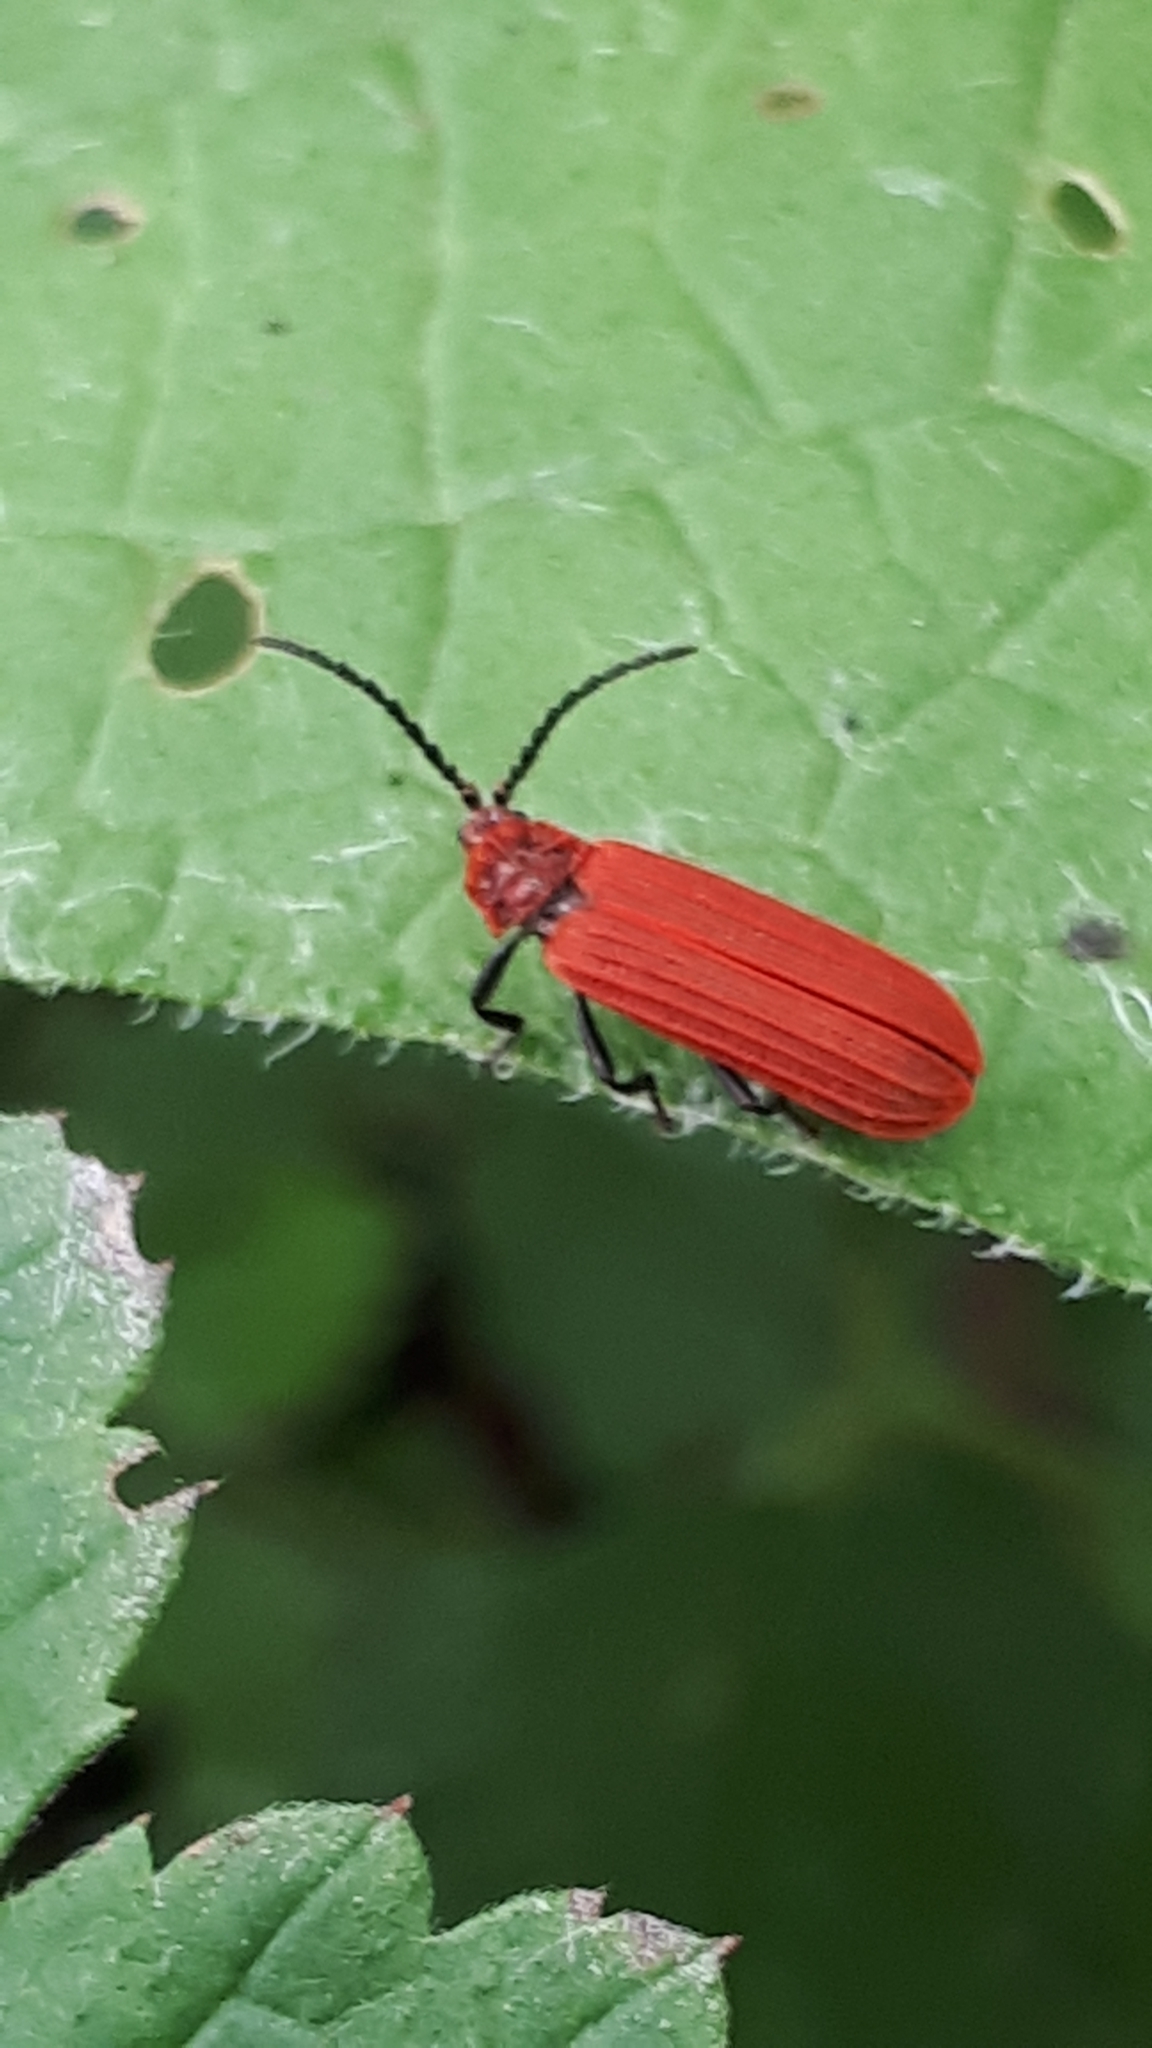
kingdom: Animalia
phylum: Arthropoda
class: Insecta
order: Coleoptera
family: Lycidae
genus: Lopheros
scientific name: Lopheros rubens
